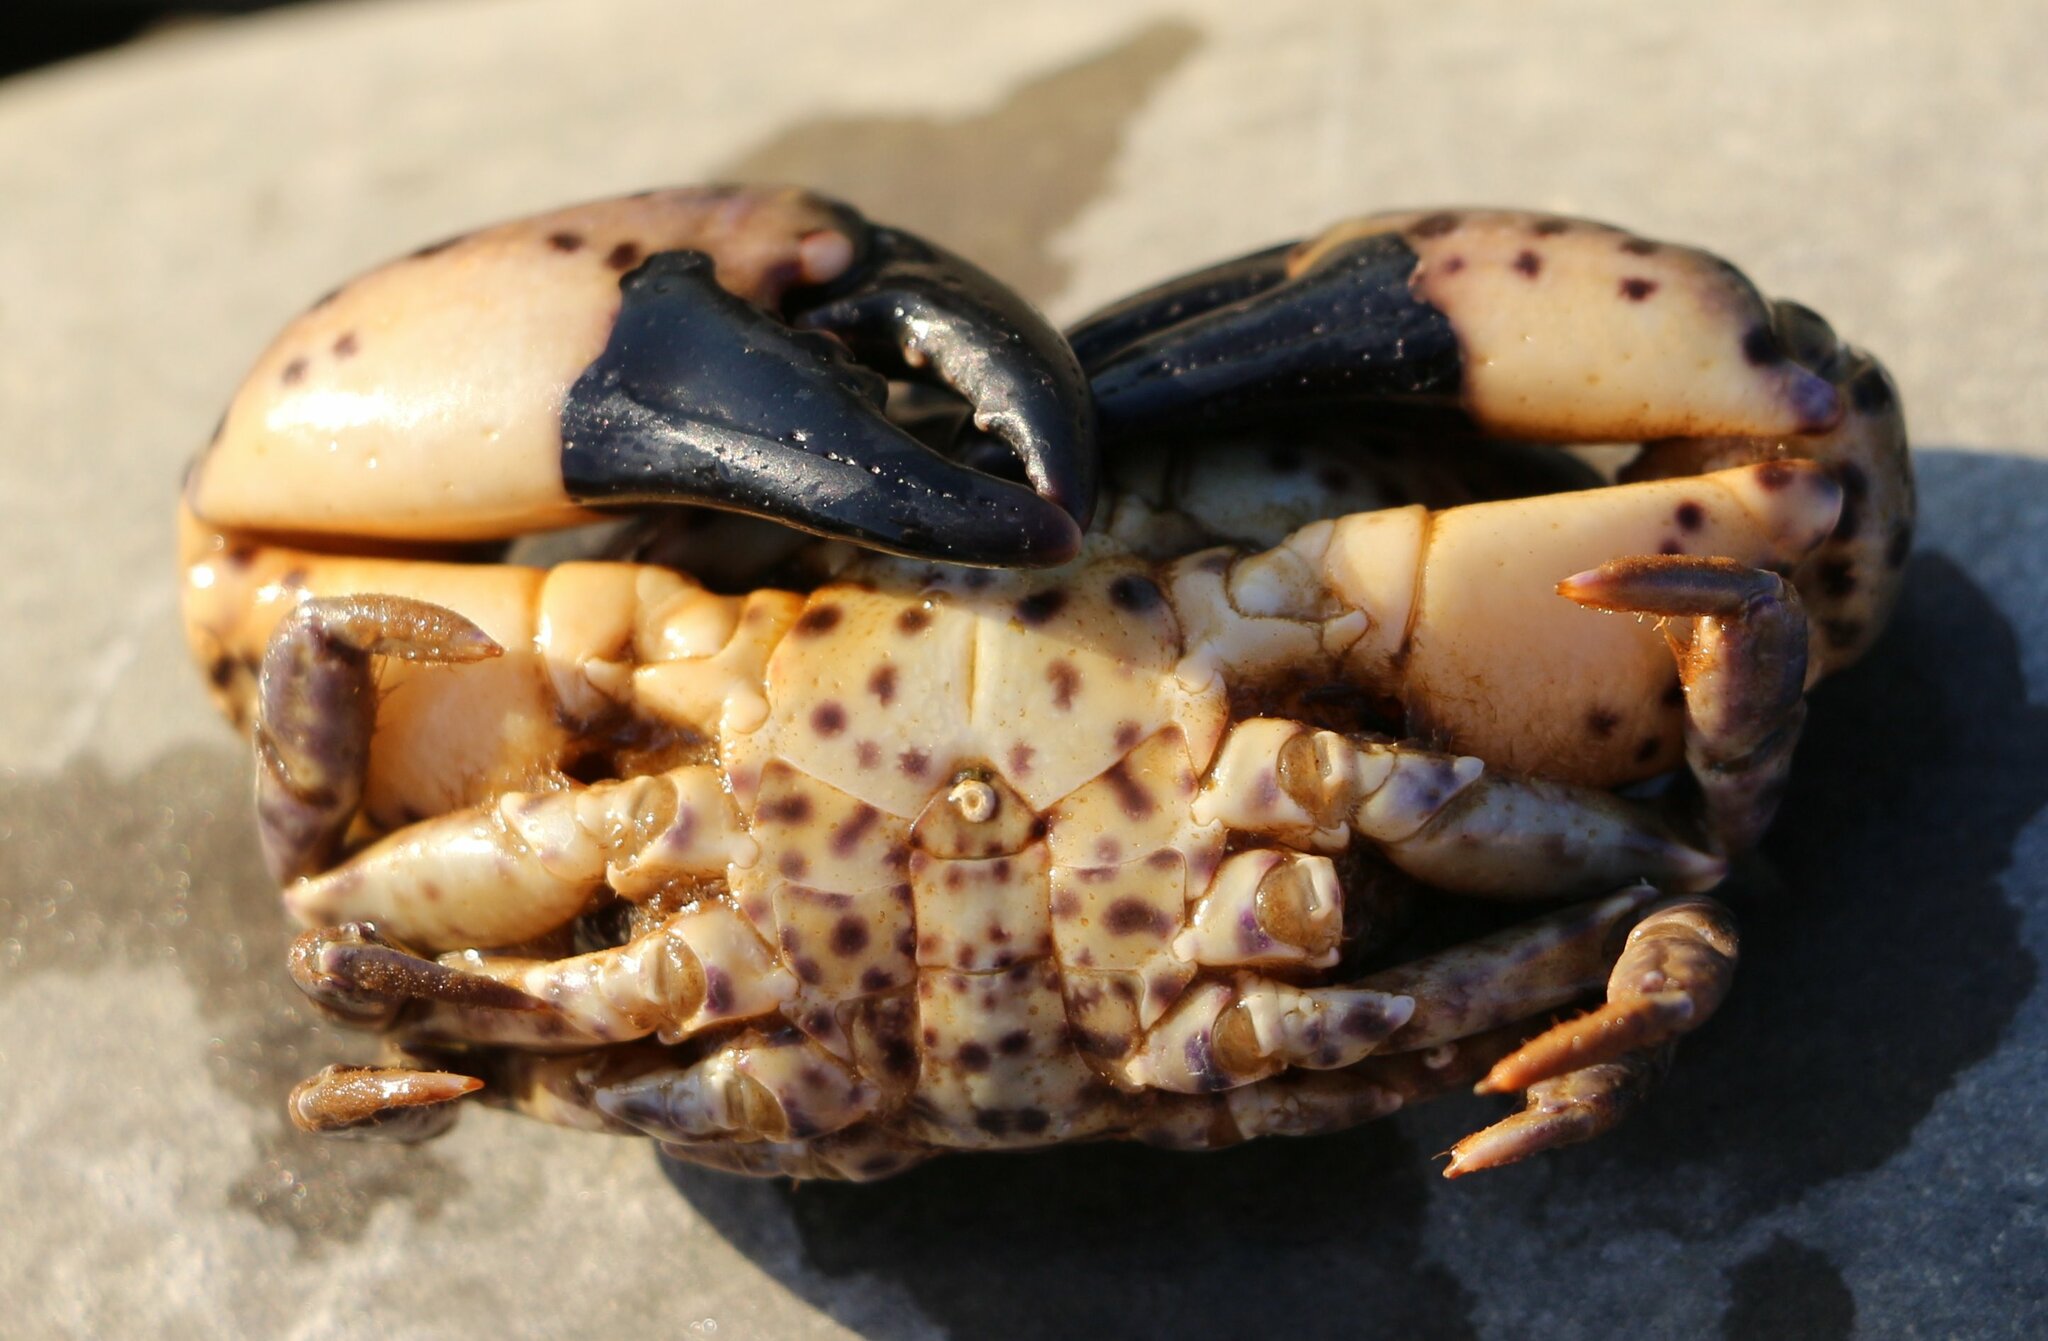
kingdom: Animalia
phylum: Arthropoda
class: Malacostraca
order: Decapoda
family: Xanthidae
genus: Xantho
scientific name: Xantho poressa
